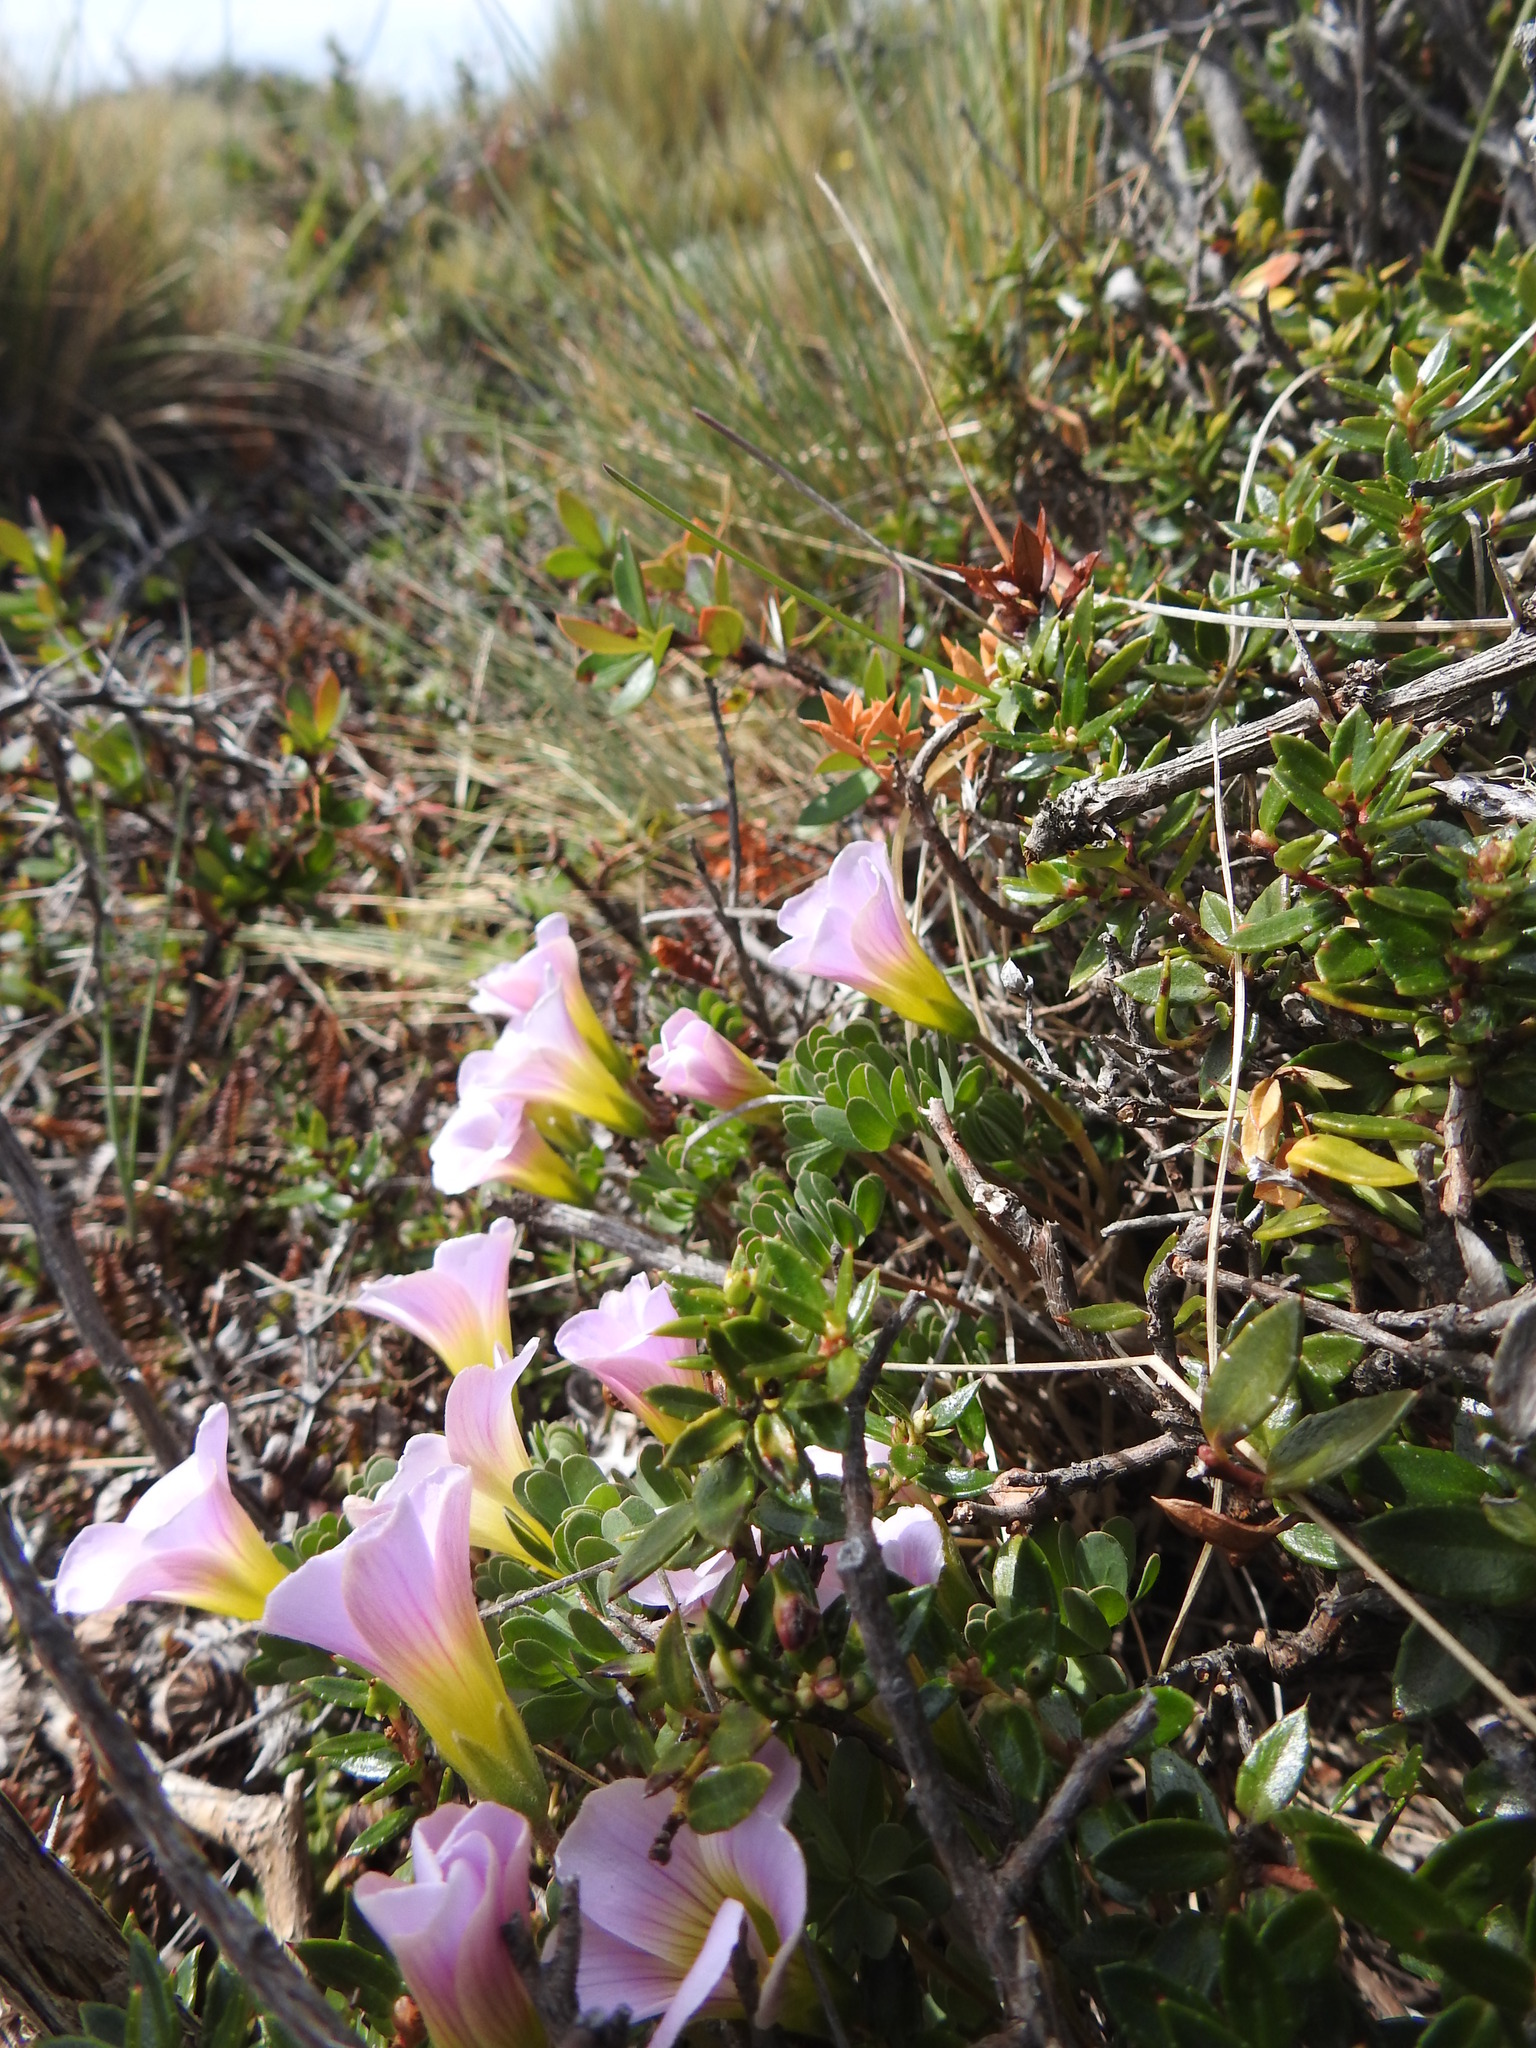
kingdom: Plantae
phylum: Tracheophyta
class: Magnoliopsida
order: Oxalidales
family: Oxalidaceae
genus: Oxalis
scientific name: Oxalis enneaphylla
